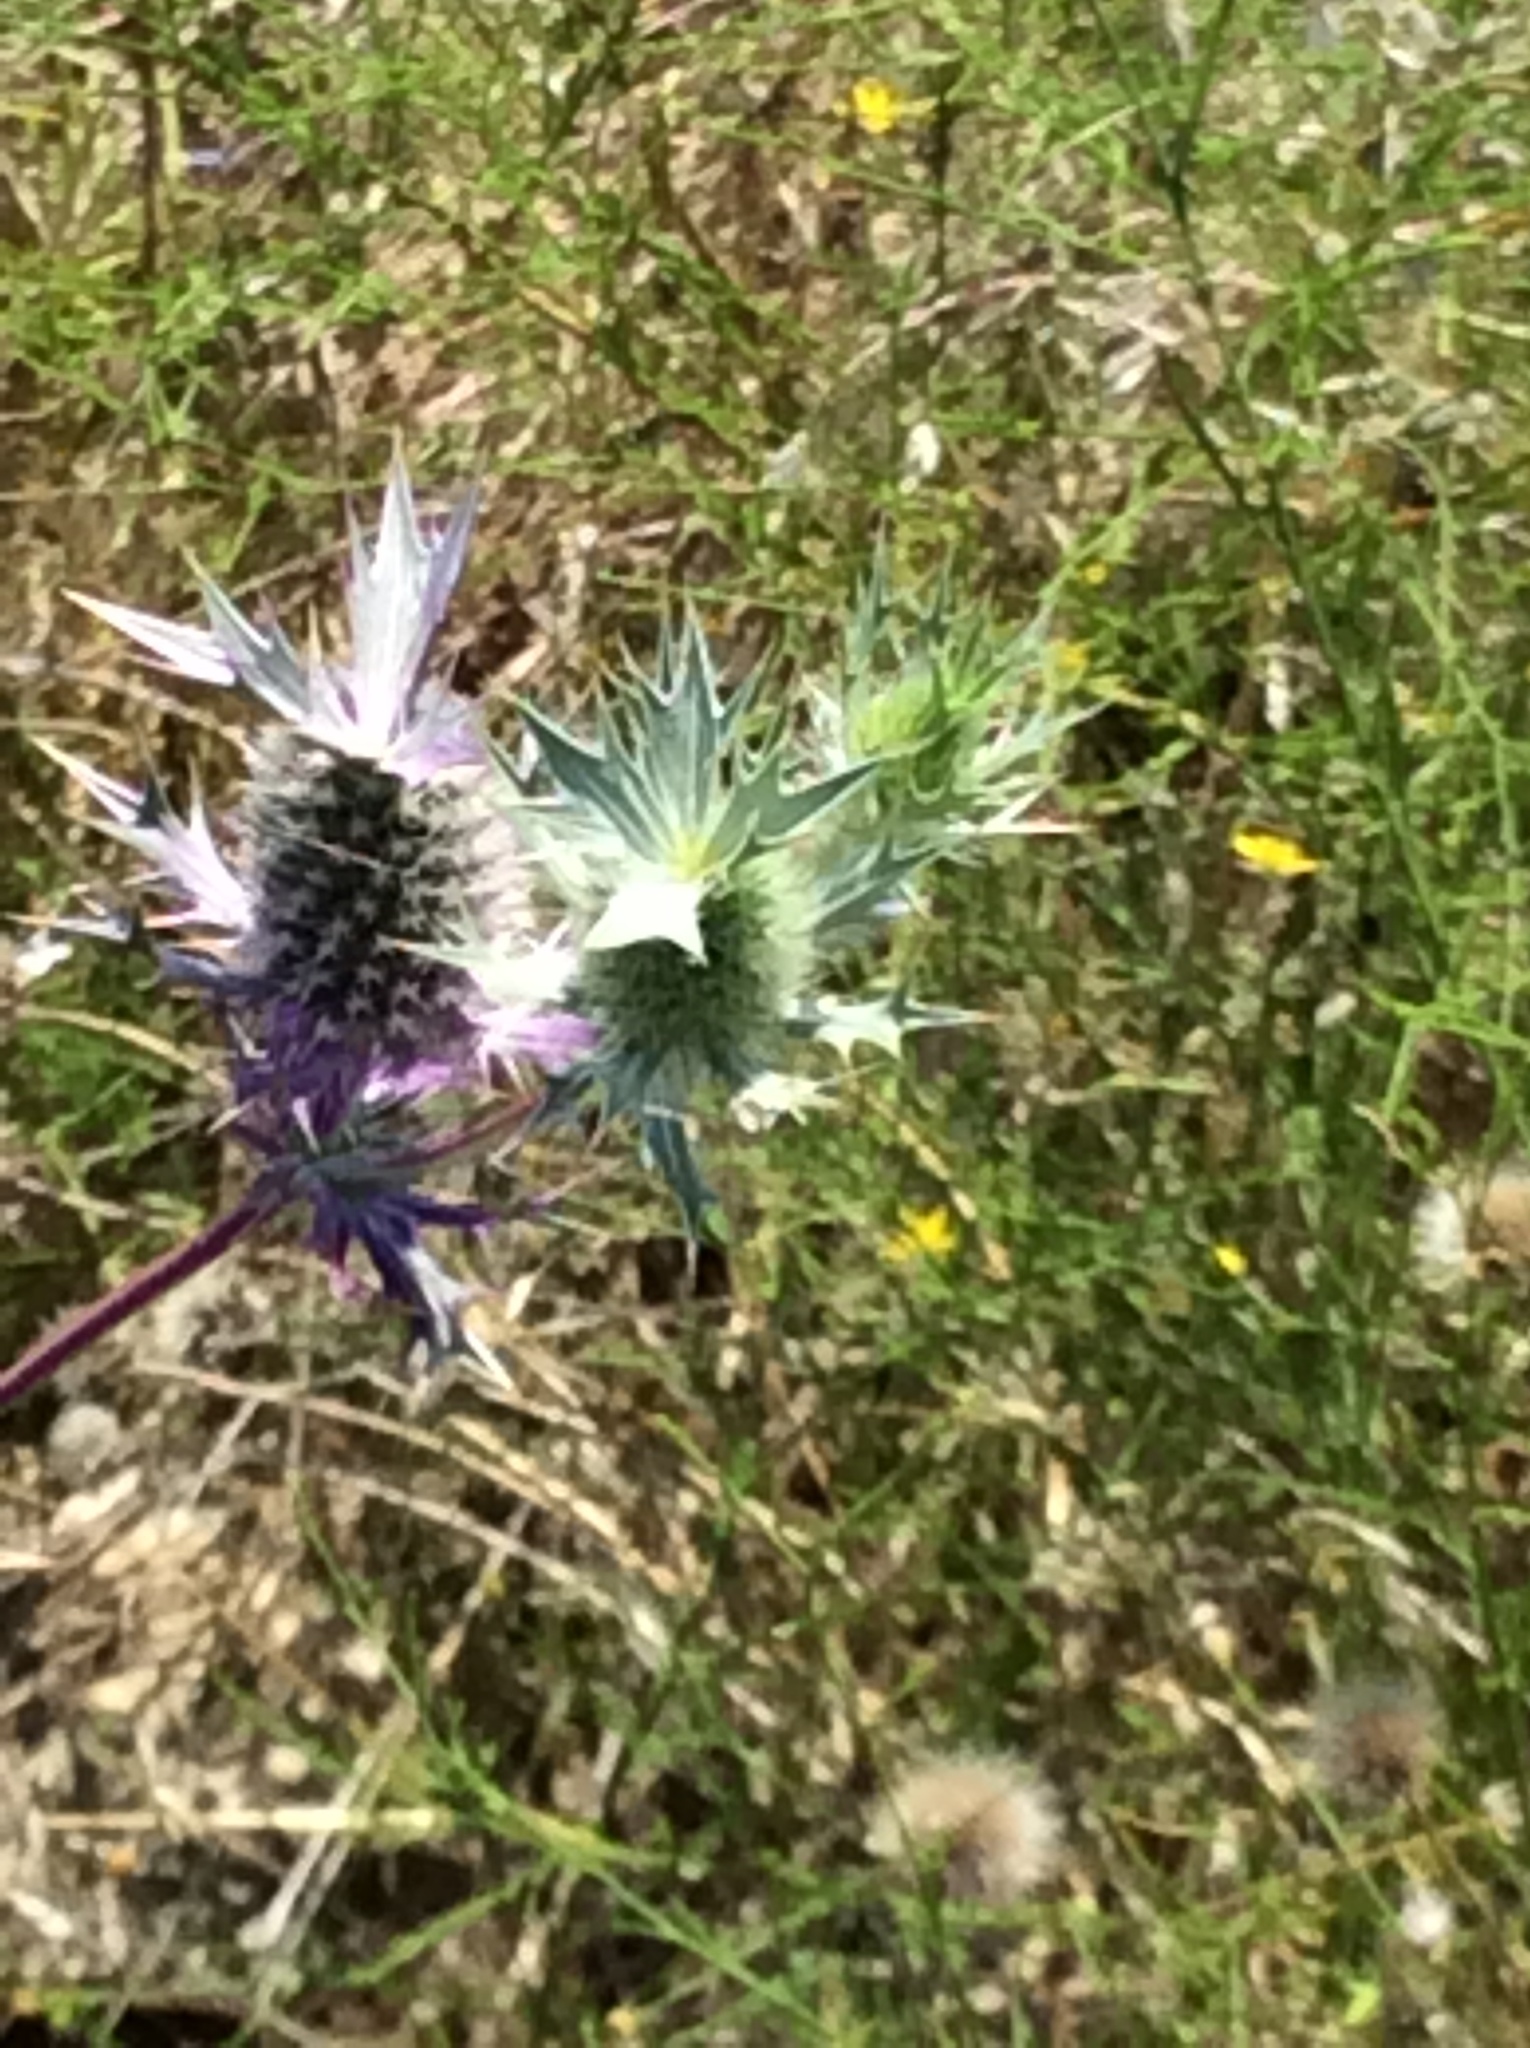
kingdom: Plantae
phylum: Tracheophyta
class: Magnoliopsida
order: Apiales
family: Apiaceae
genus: Eryngium
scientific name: Eryngium leavenworthii
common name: Leavenworth's eryngo
